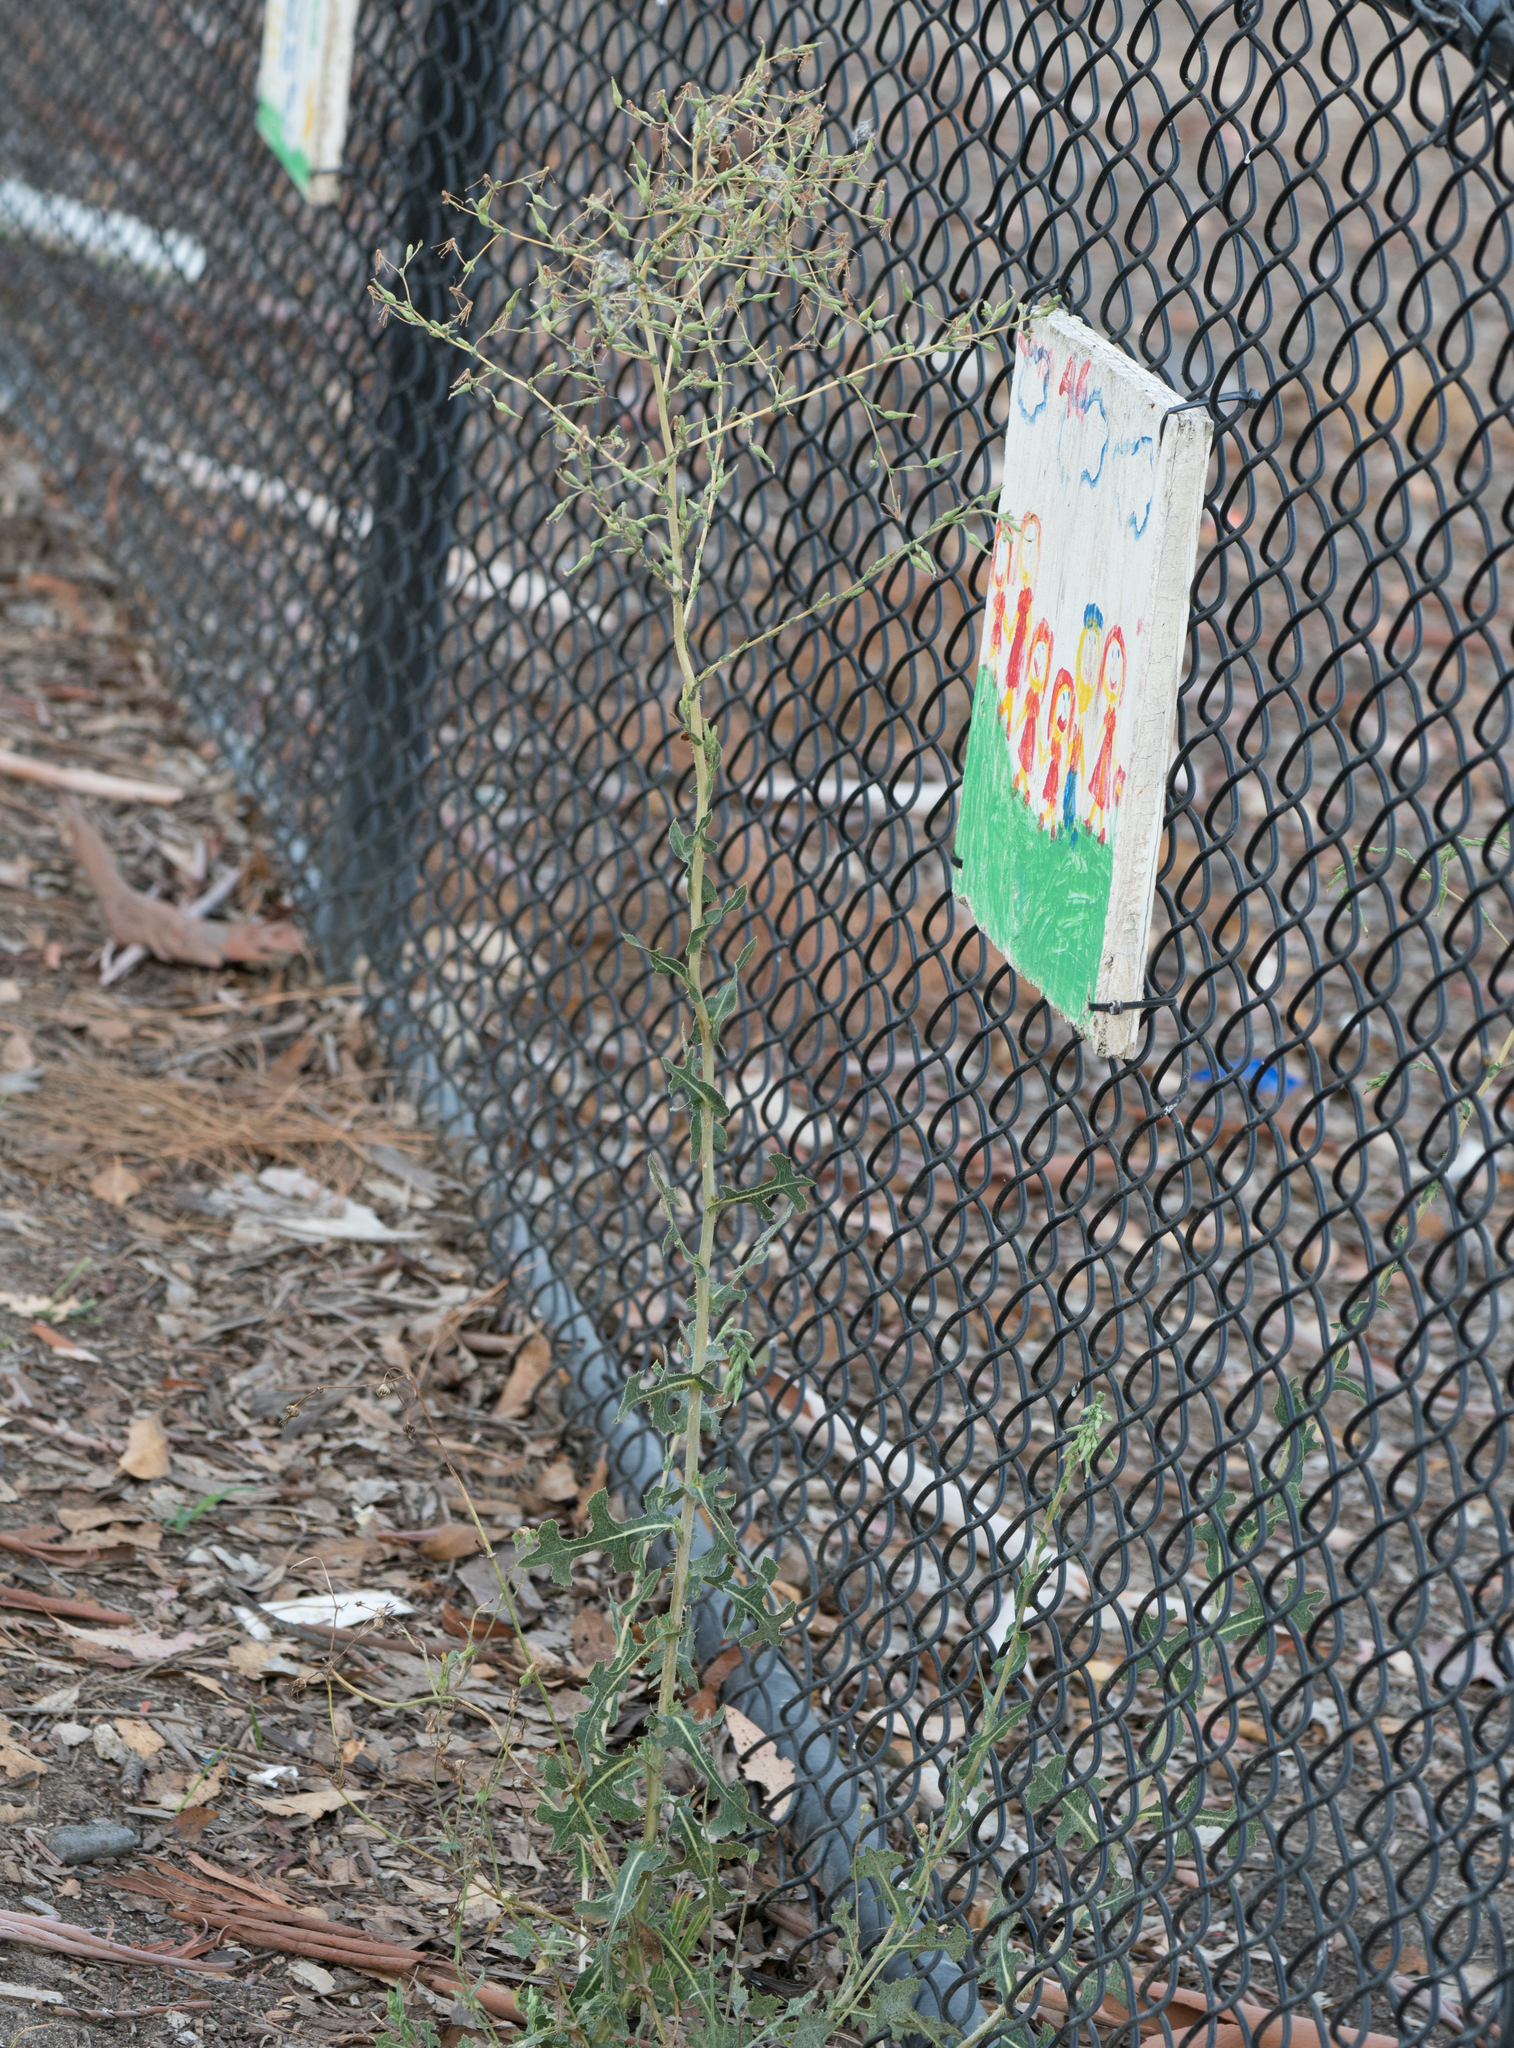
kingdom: Plantae
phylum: Tracheophyta
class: Magnoliopsida
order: Asterales
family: Asteraceae
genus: Lactuca
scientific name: Lactuca serriola
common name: Prickly lettuce
